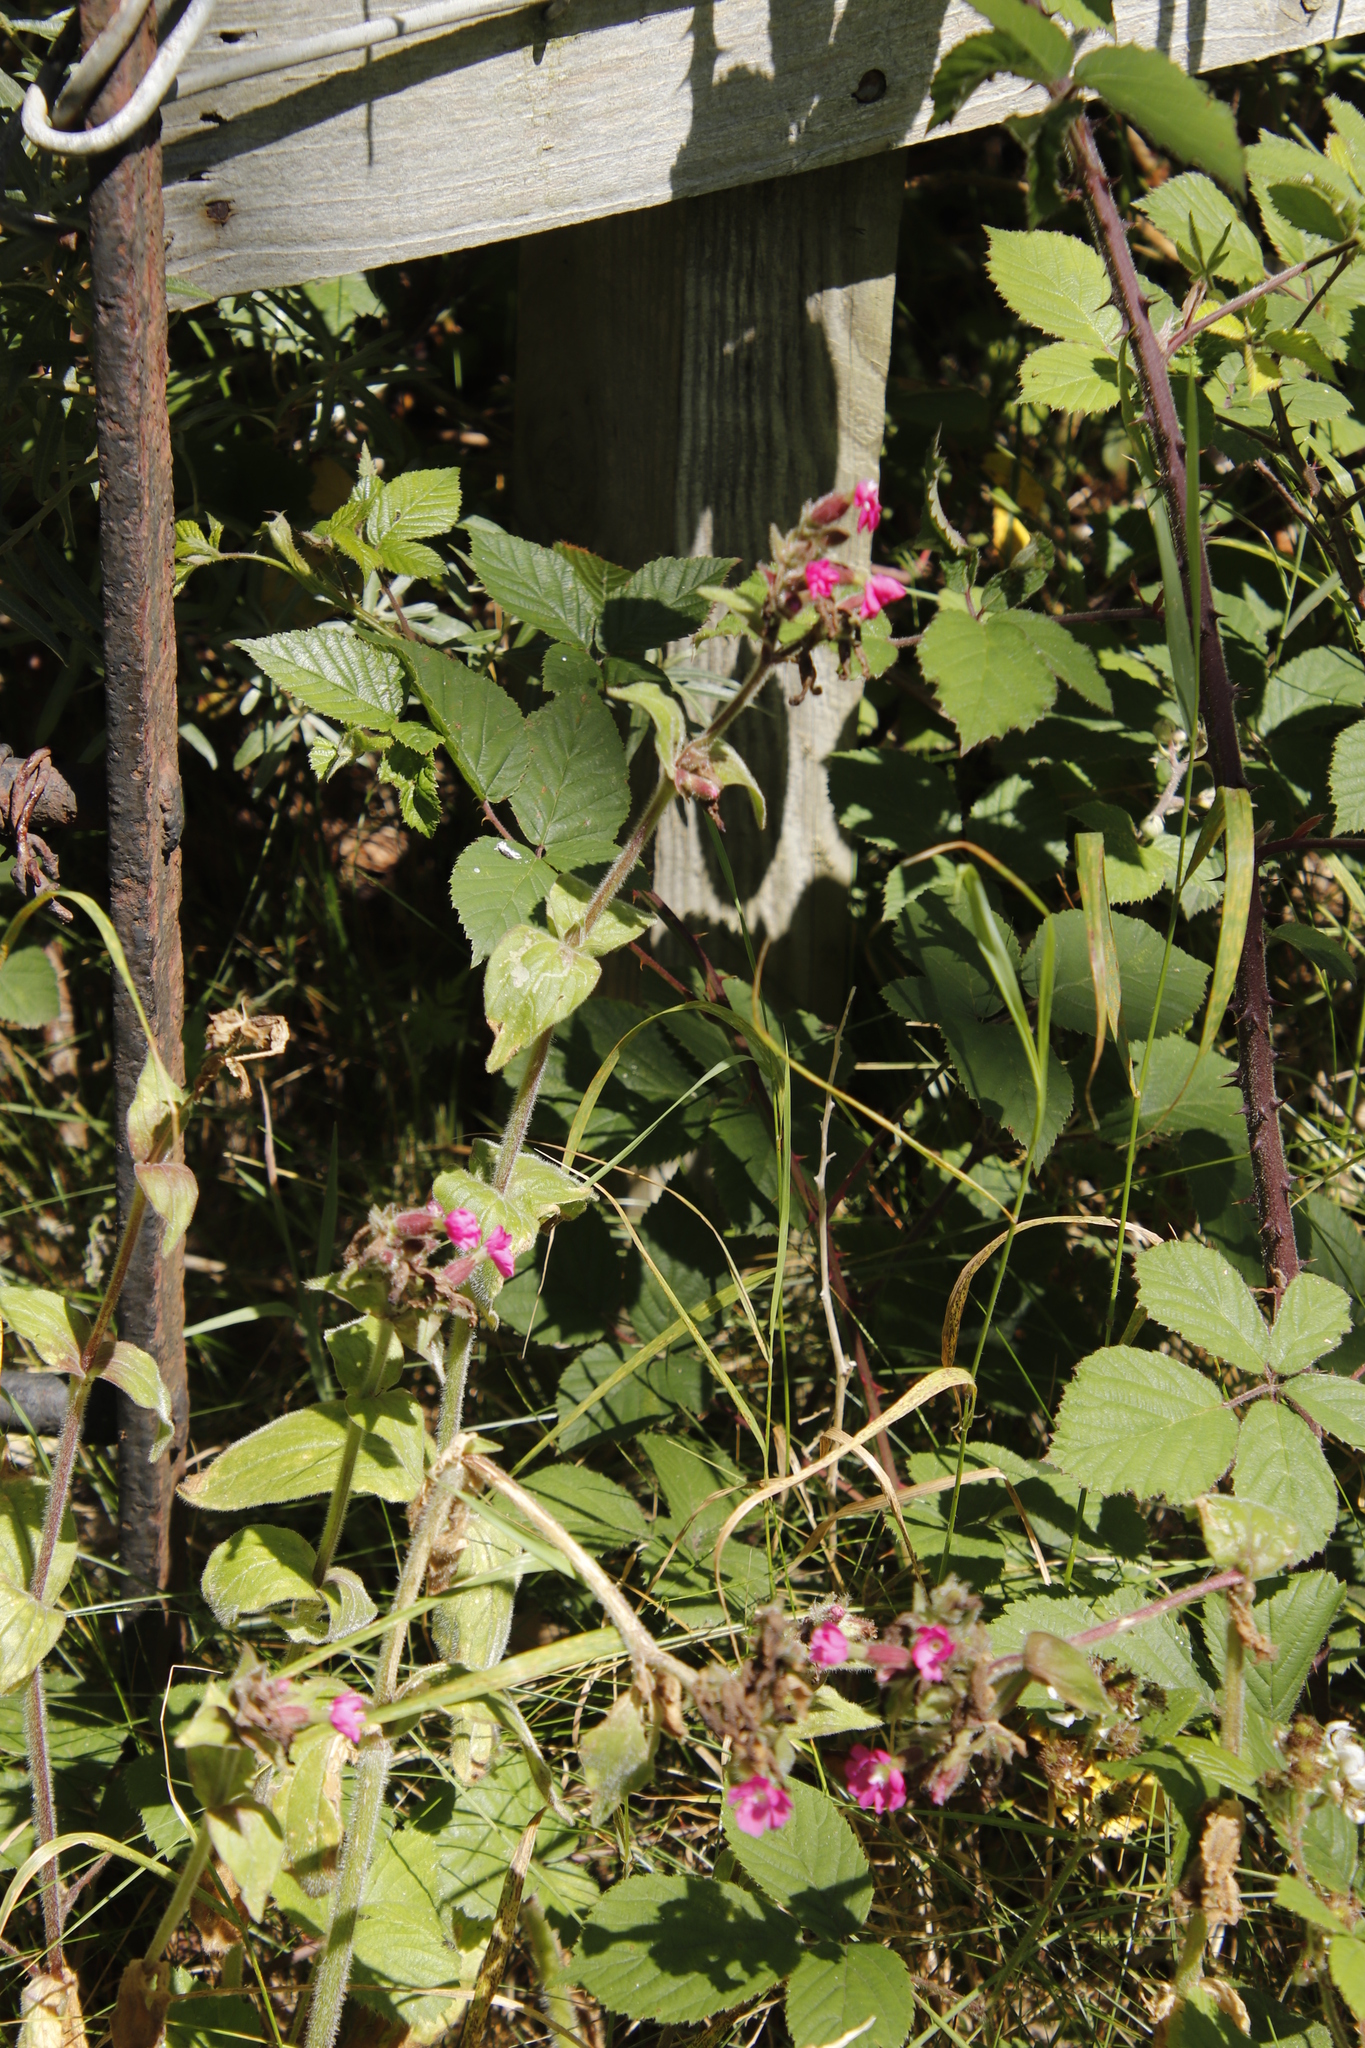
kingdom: Plantae
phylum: Tracheophyta
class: Magnoliopsida
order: Caryophyllales
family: Caryophyllaceae
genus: Silene
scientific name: Silene dioica
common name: Red campion
